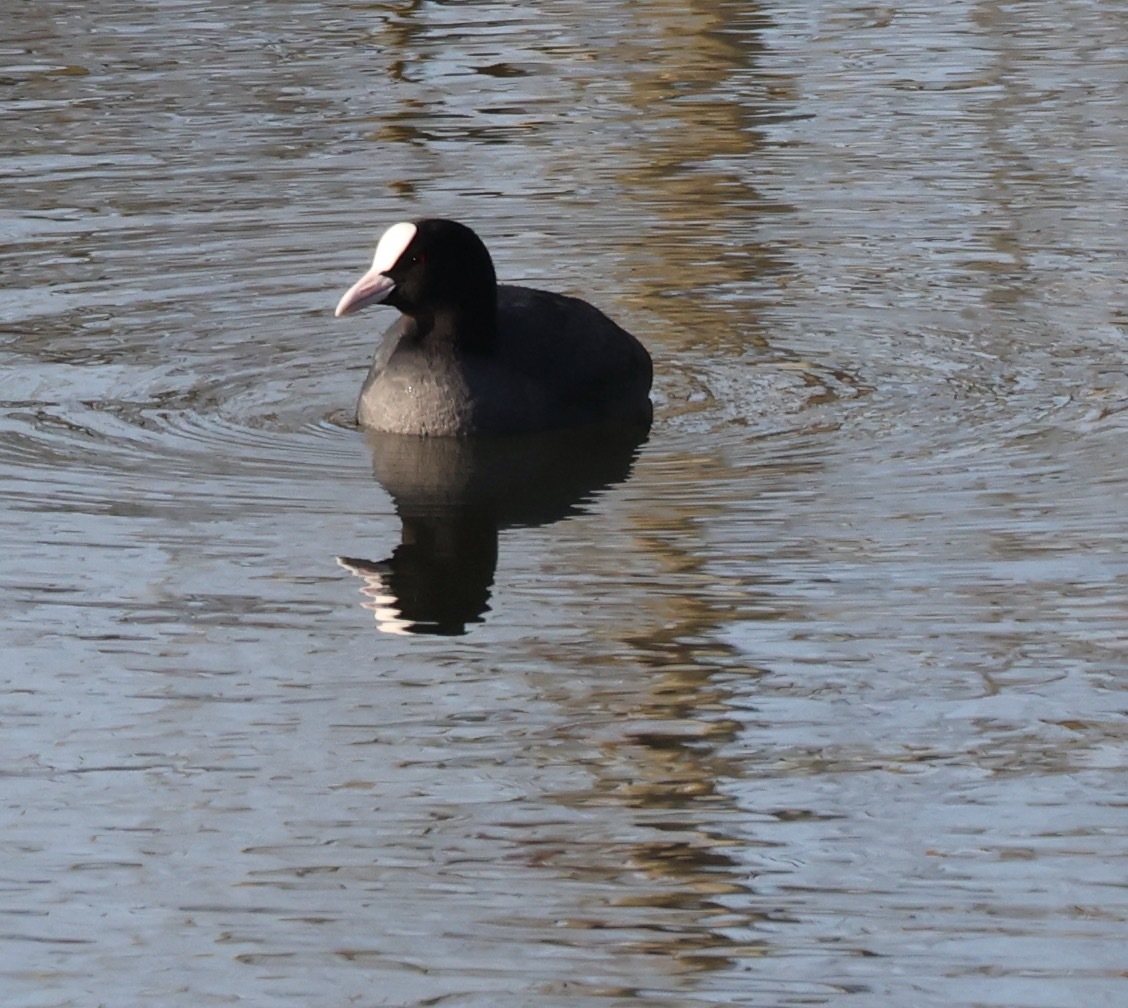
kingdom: Animalia
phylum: Chordata
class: Aves
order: Gruiformes
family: Rallidae
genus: Fulica
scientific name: Fulica atra
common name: Eurasian coot
